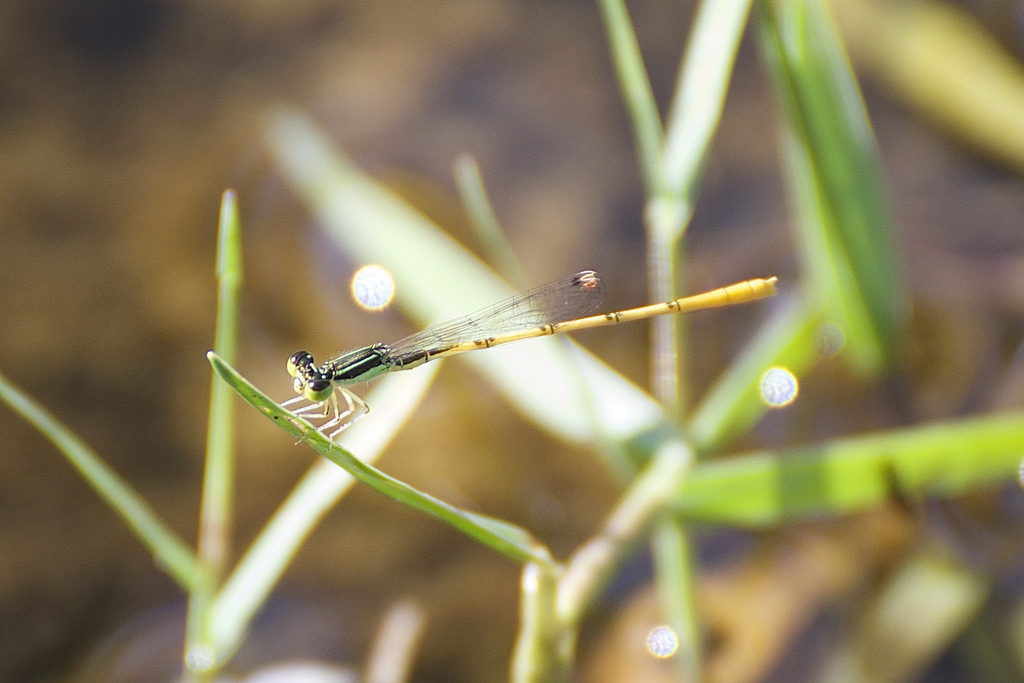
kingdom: Animalia
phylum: Arthropoda
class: Insecta
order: Odonata
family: Coenagrionidae
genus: Ischnura
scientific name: Ischnura hastata
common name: Citrine forktail
